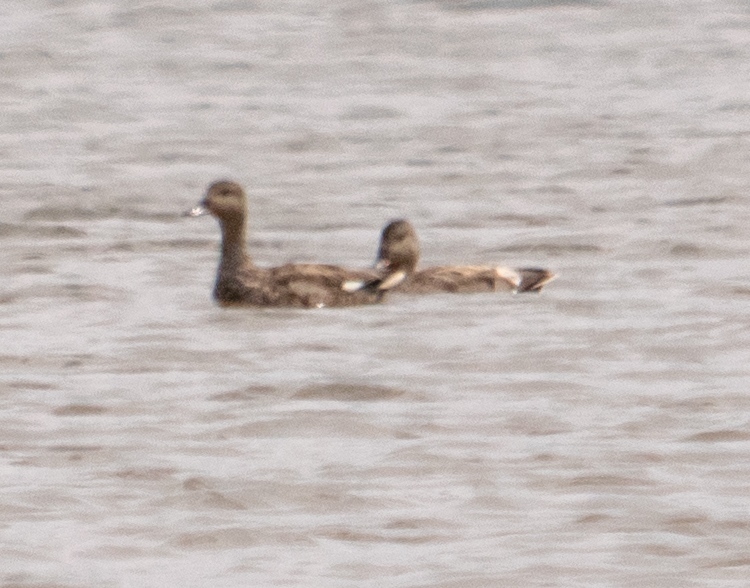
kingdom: Animalia
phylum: Chordata
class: Aves
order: Anseriformes
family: Anatidae
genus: Mareca
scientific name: Mareca strepera
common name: Gadwall
